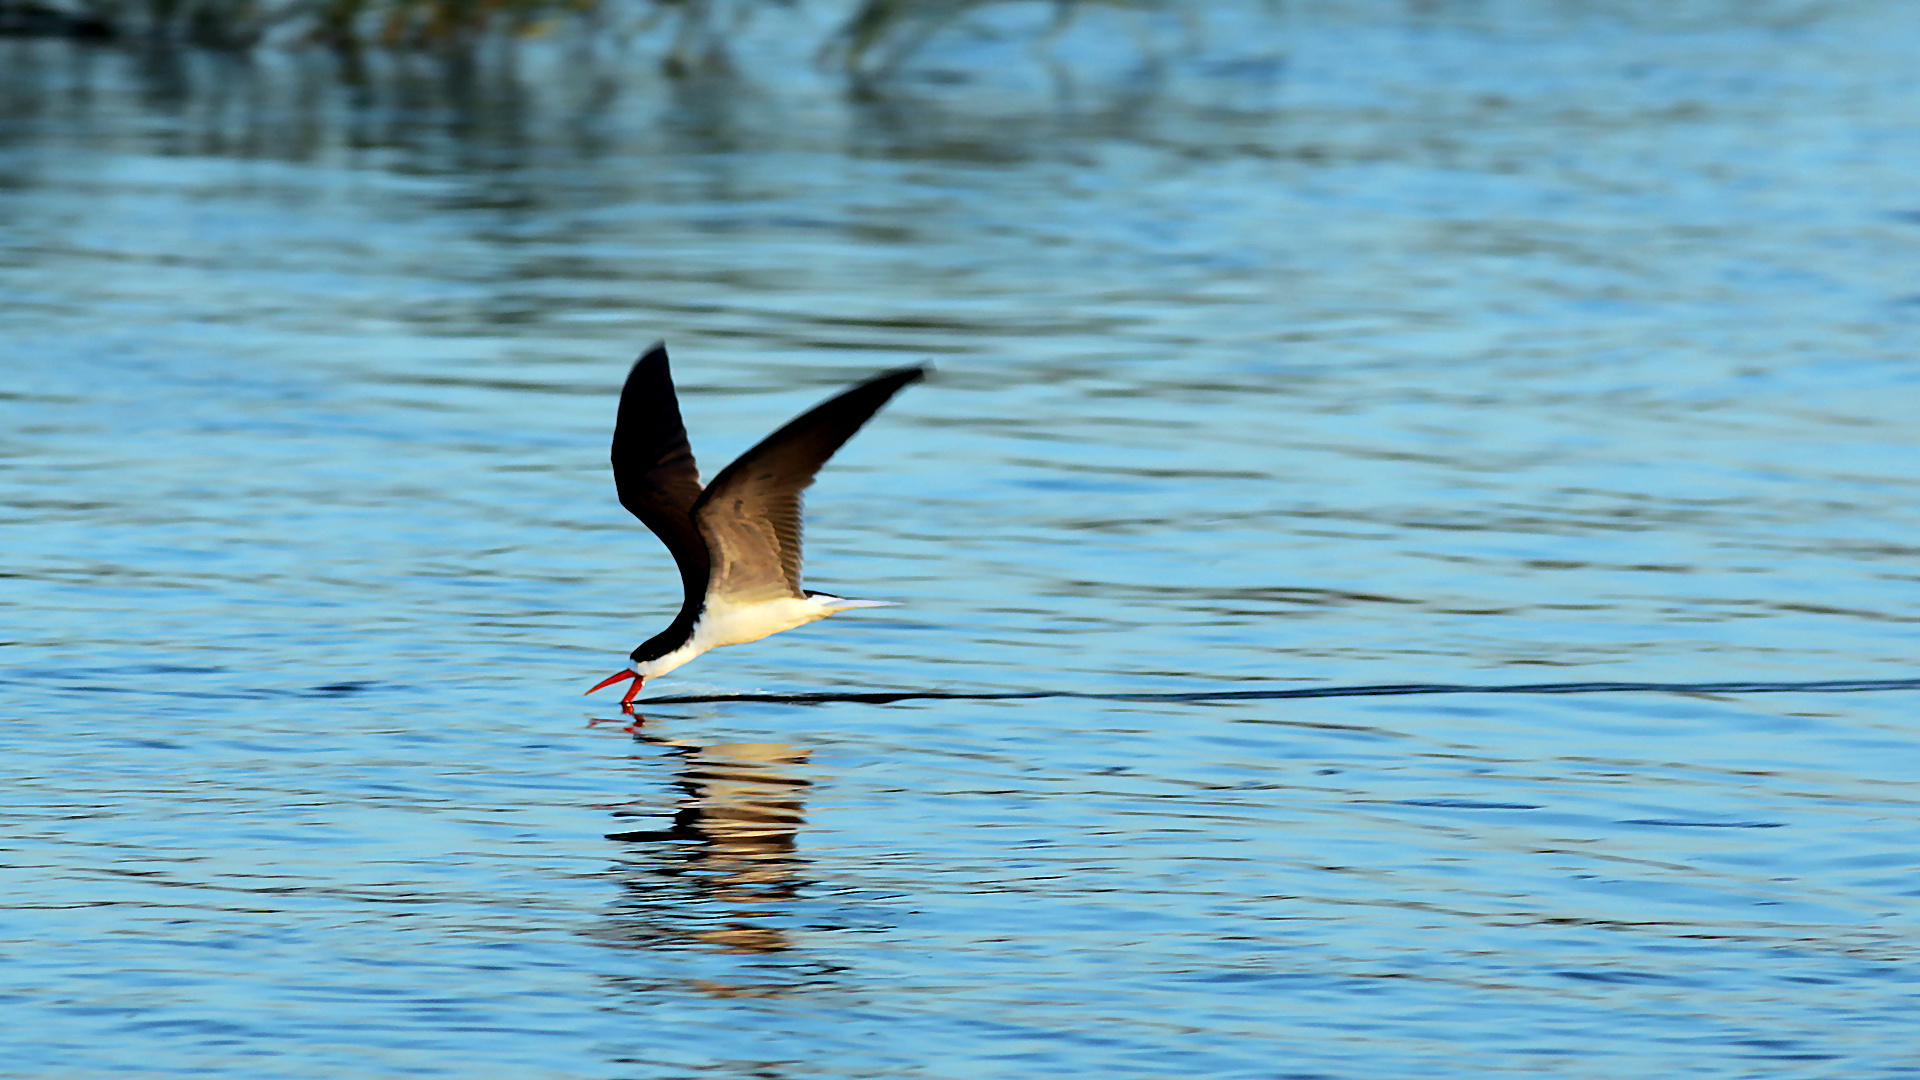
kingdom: Animalia
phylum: Chordata
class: Aves
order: Charadriiformes
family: Laridae
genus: Rynchops
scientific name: Rynchops flavirostris
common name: African skimmer
